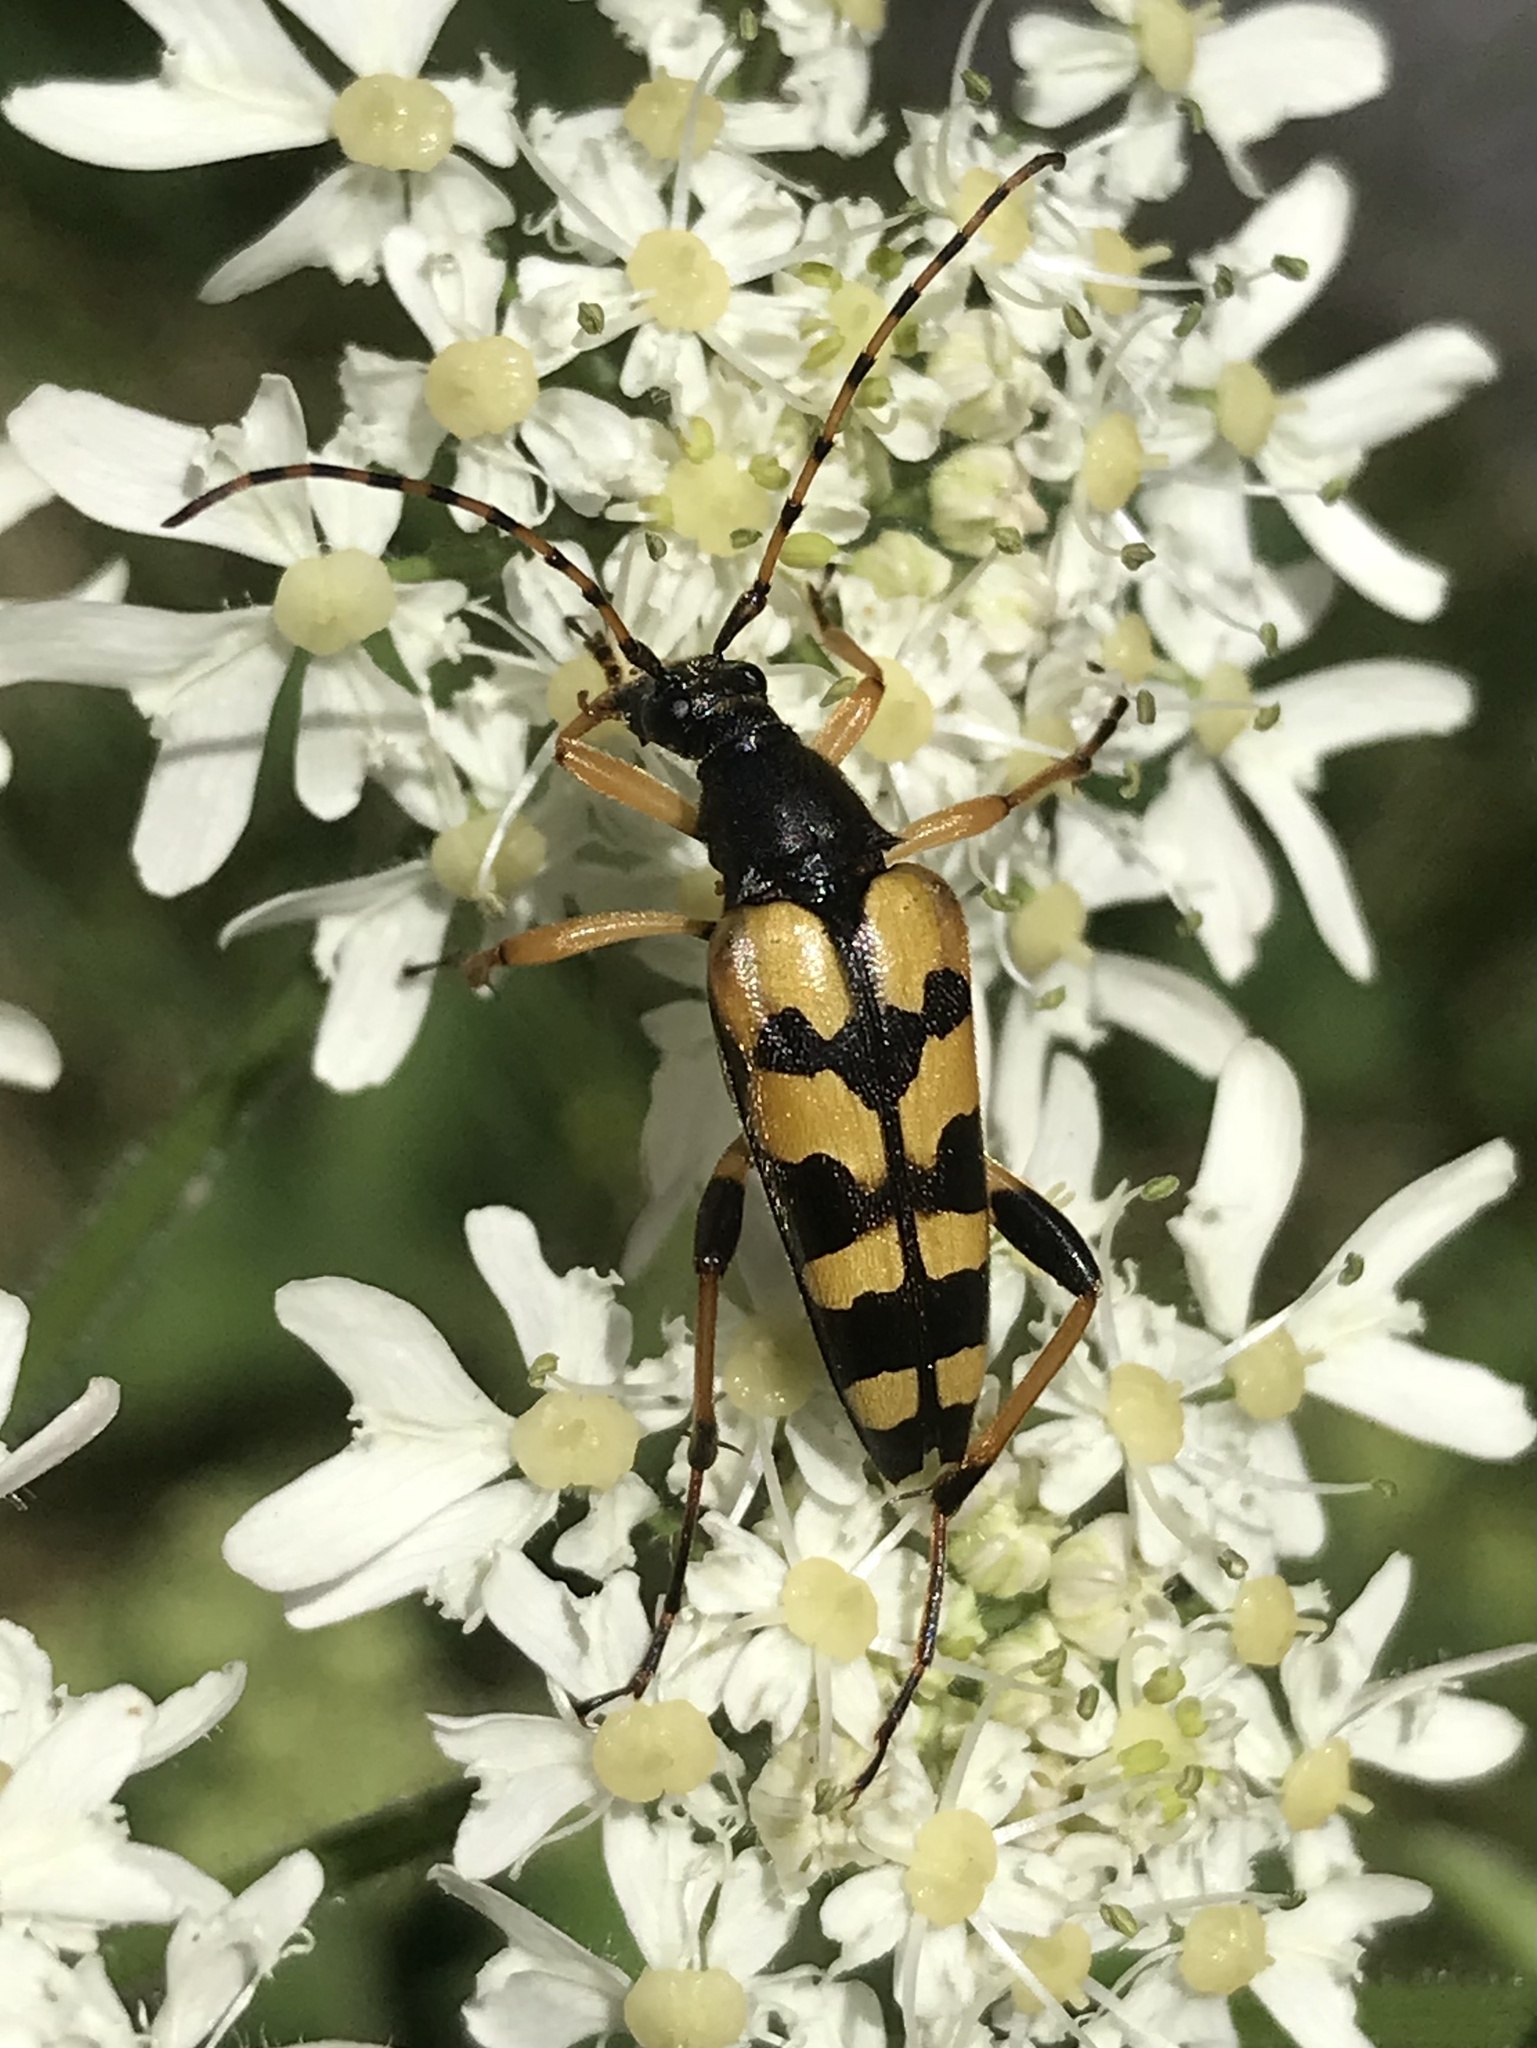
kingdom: Animalia
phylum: Arthropoda
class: Insecta
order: Coleoptera
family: Cerambycidae
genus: Rutpela
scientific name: Rutpela maculata
